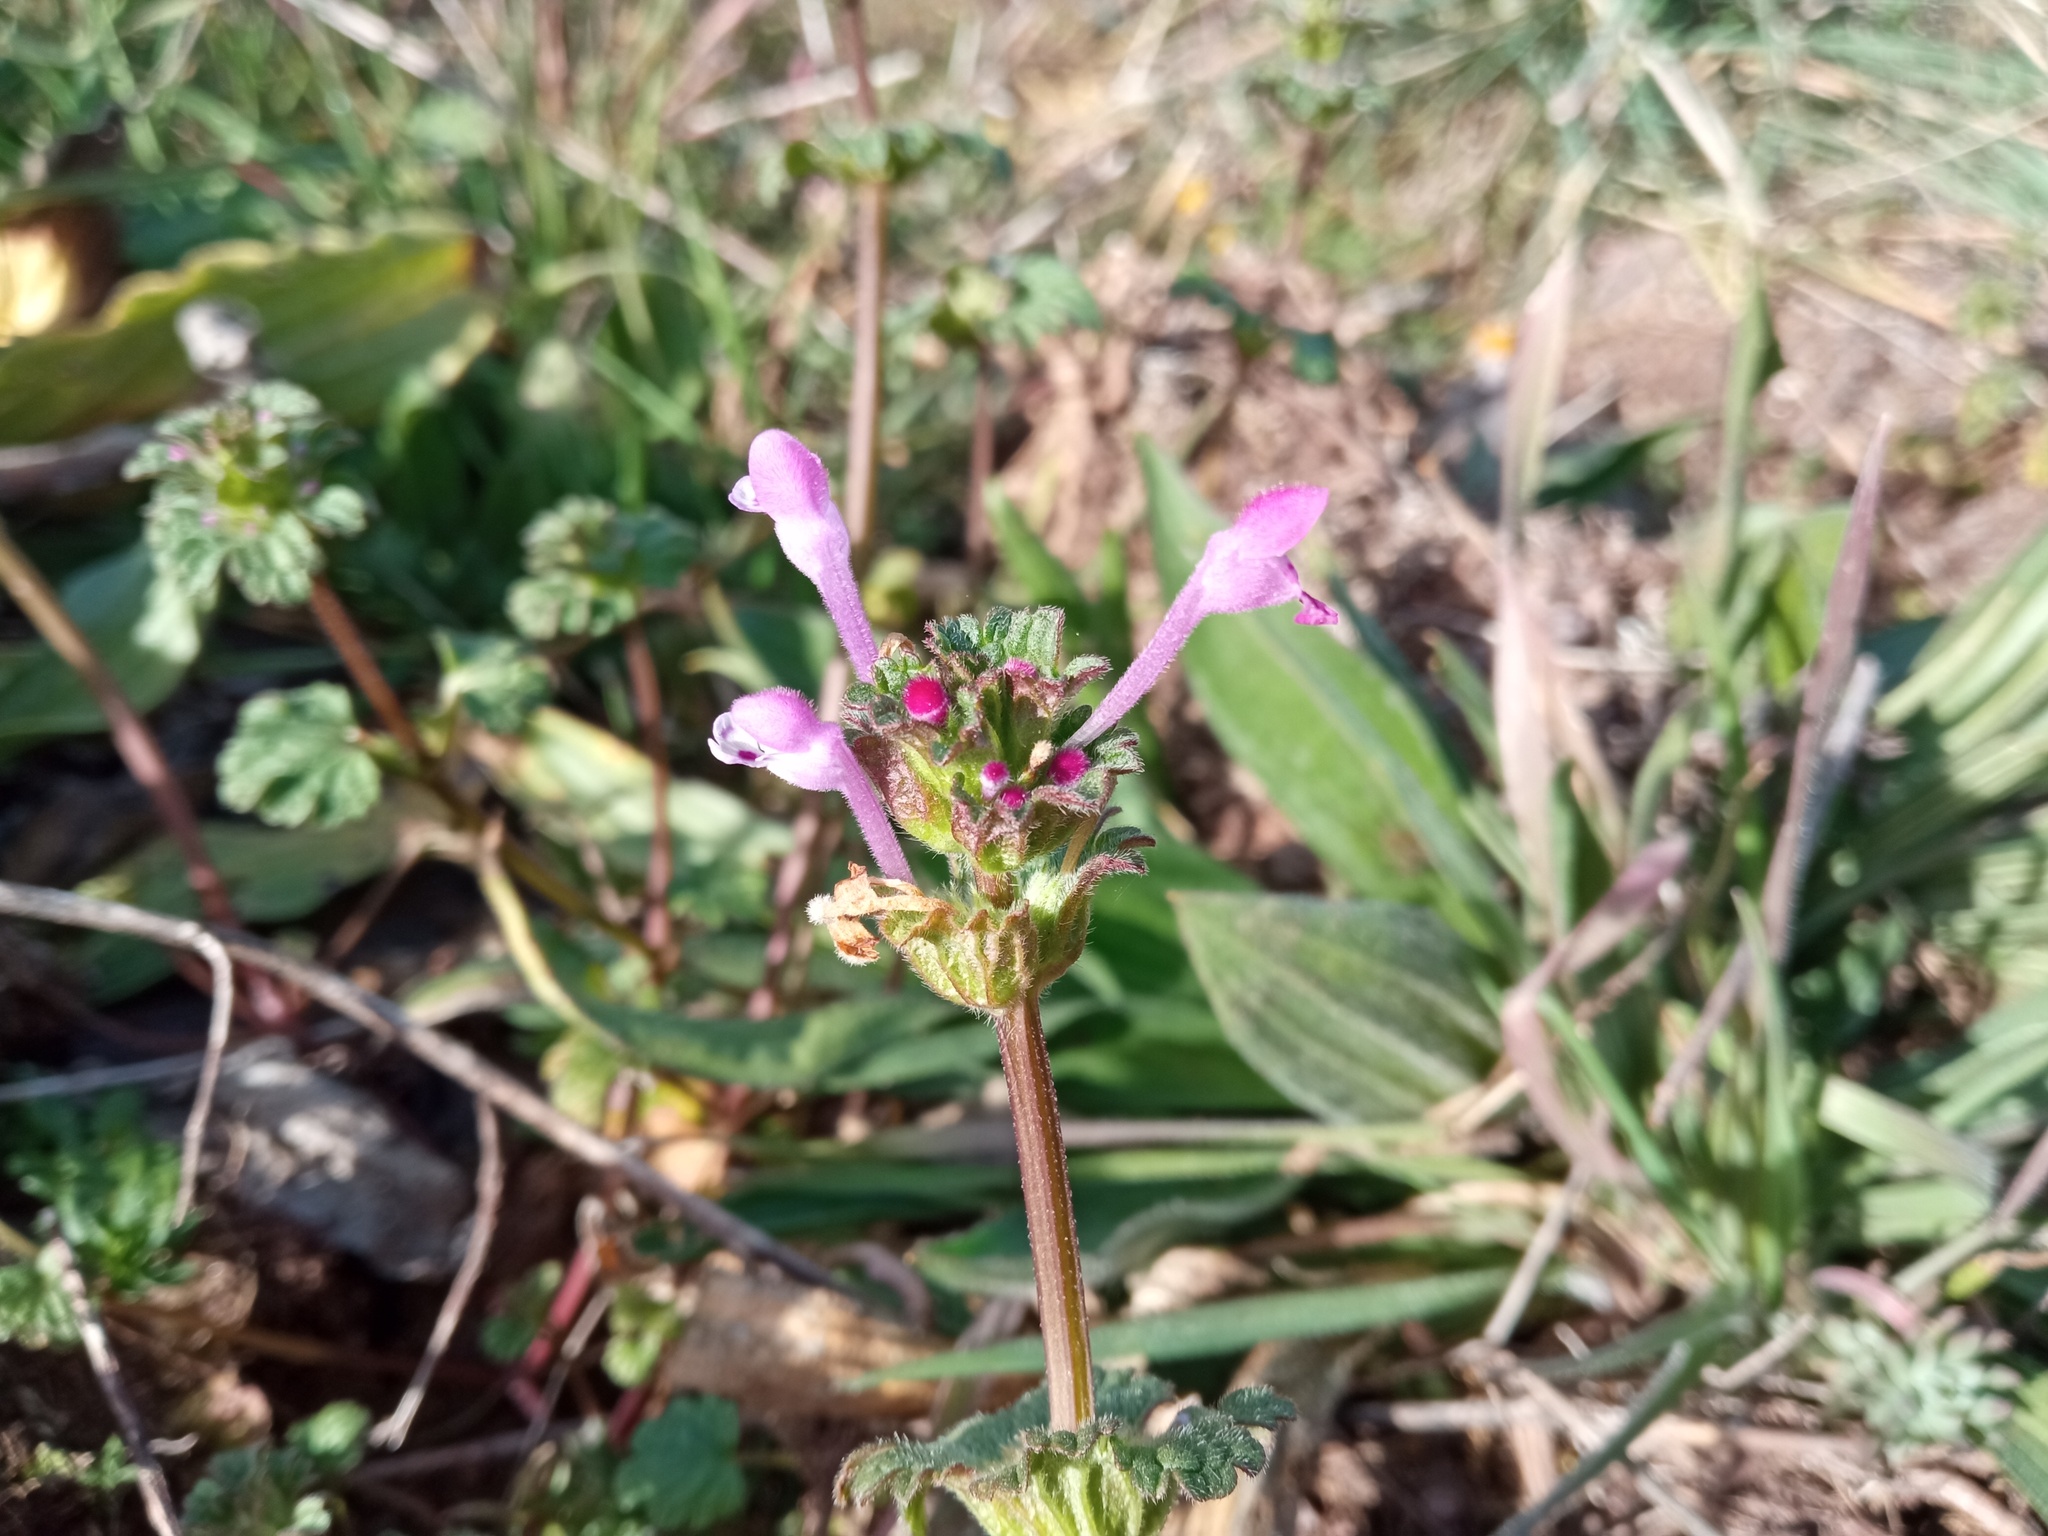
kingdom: Plantae
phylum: Tracheophyta
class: Magnoliopsida
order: Lamiales
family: Lamiaceae
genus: Lamium
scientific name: Lamium amplexicaule
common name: Henbit dead-nettle
